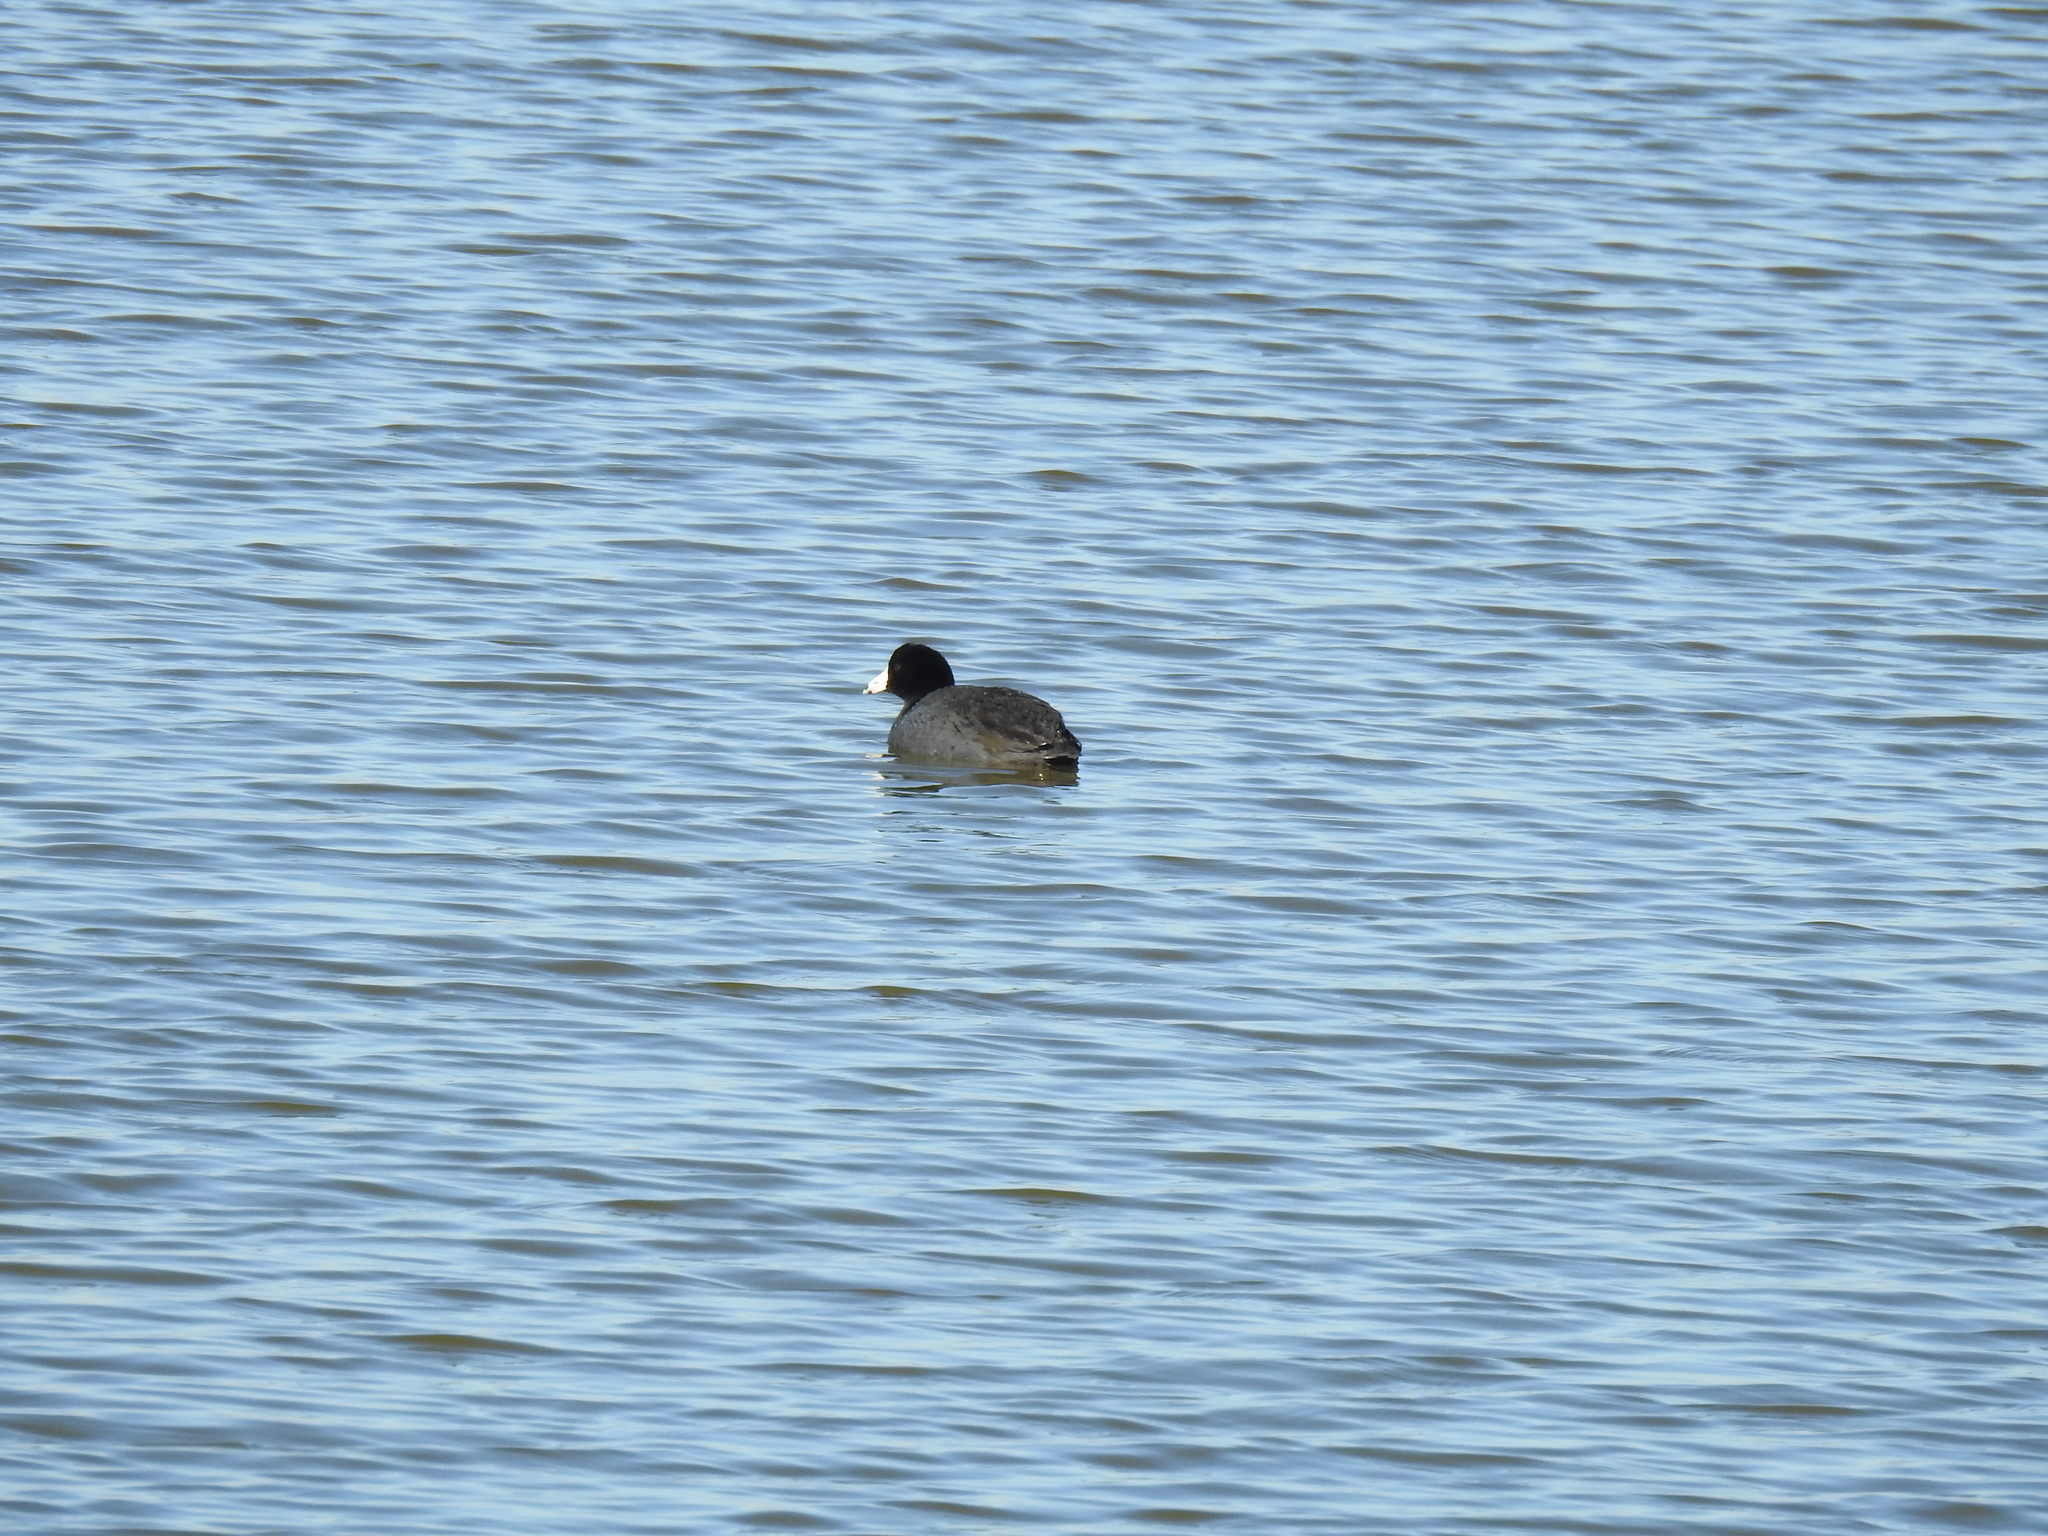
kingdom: Animalia
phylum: Chordata
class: Aves
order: Gruiformes
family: Rallidae
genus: Fulica
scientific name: Fulica americana
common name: American coot
